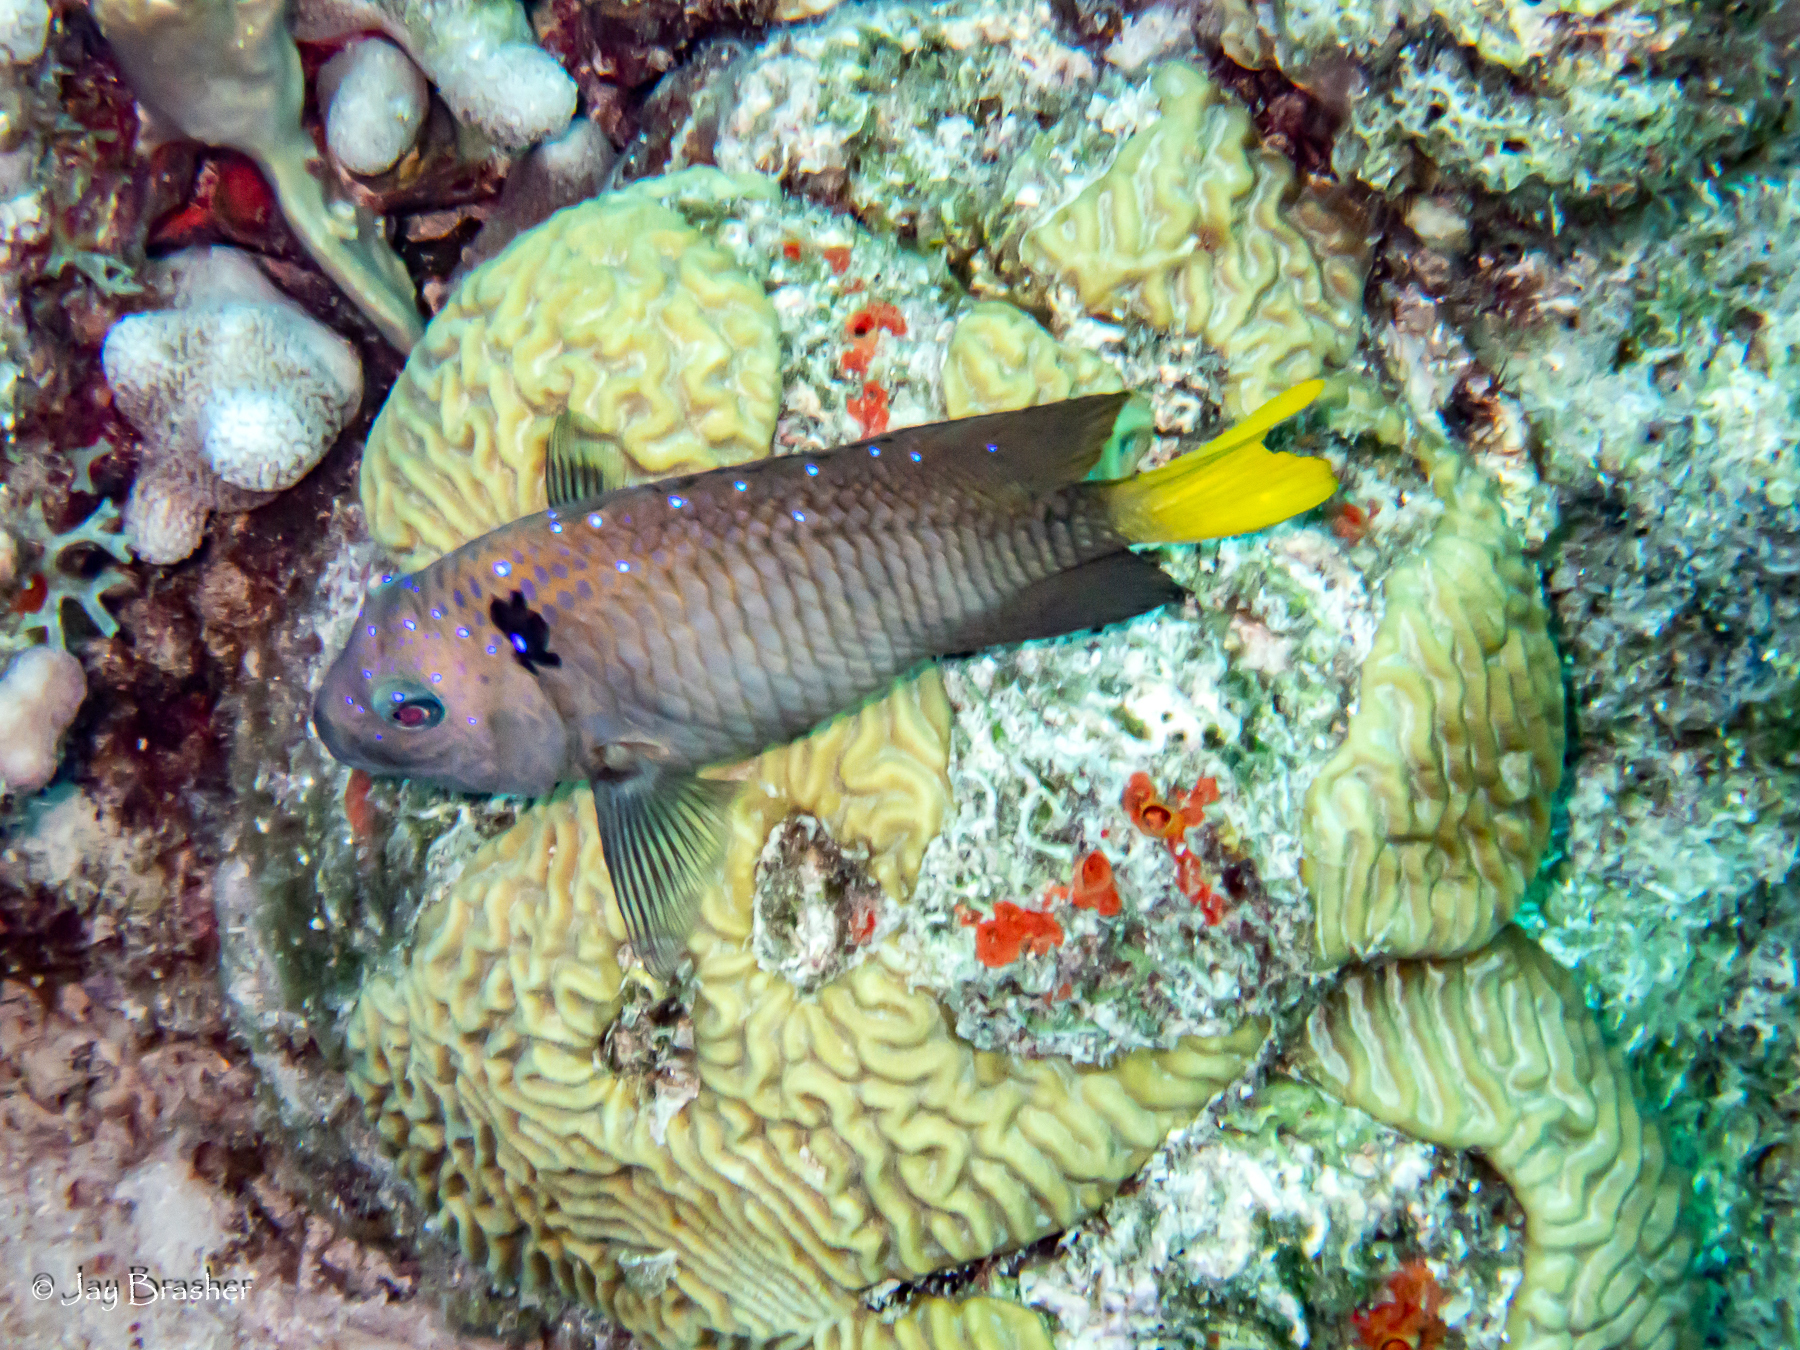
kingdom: Animalia
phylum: Chordata
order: Perciformes
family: Pomacentridae
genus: Microspathodon
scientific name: Microspathodon chrysurus
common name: Yellowtail damselfish
